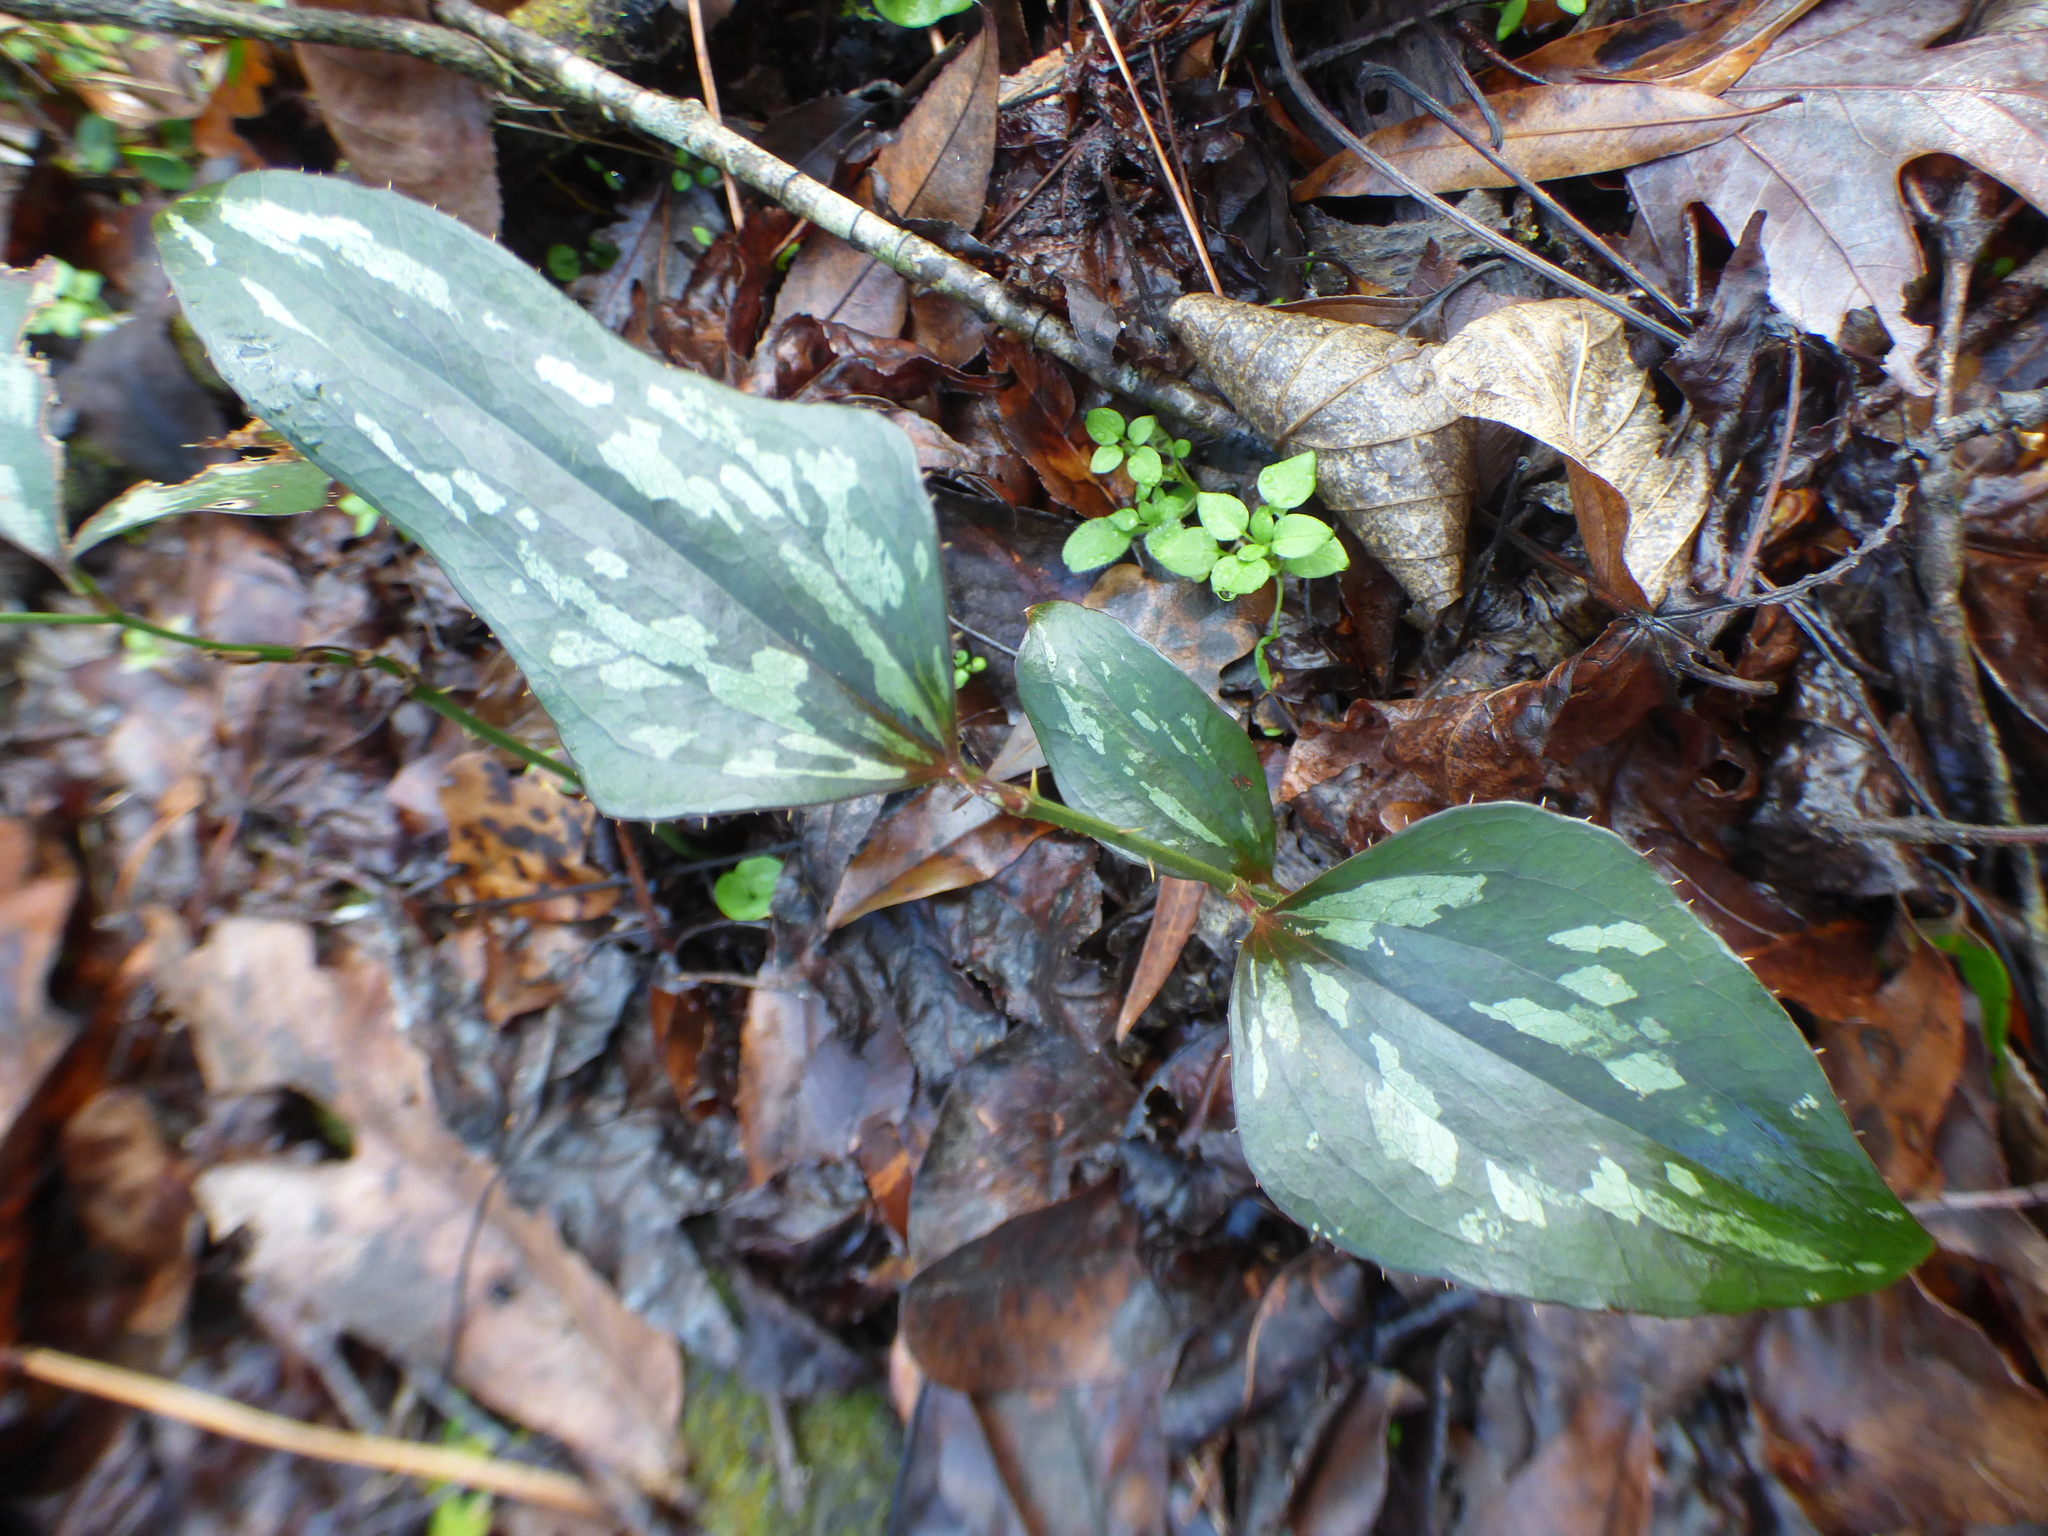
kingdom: Plantae
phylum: Tracheophyta
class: Liliopsida
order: Liliales
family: Smilacaceae
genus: Smilax
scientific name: Smilax bona-nox
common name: Catbrier
